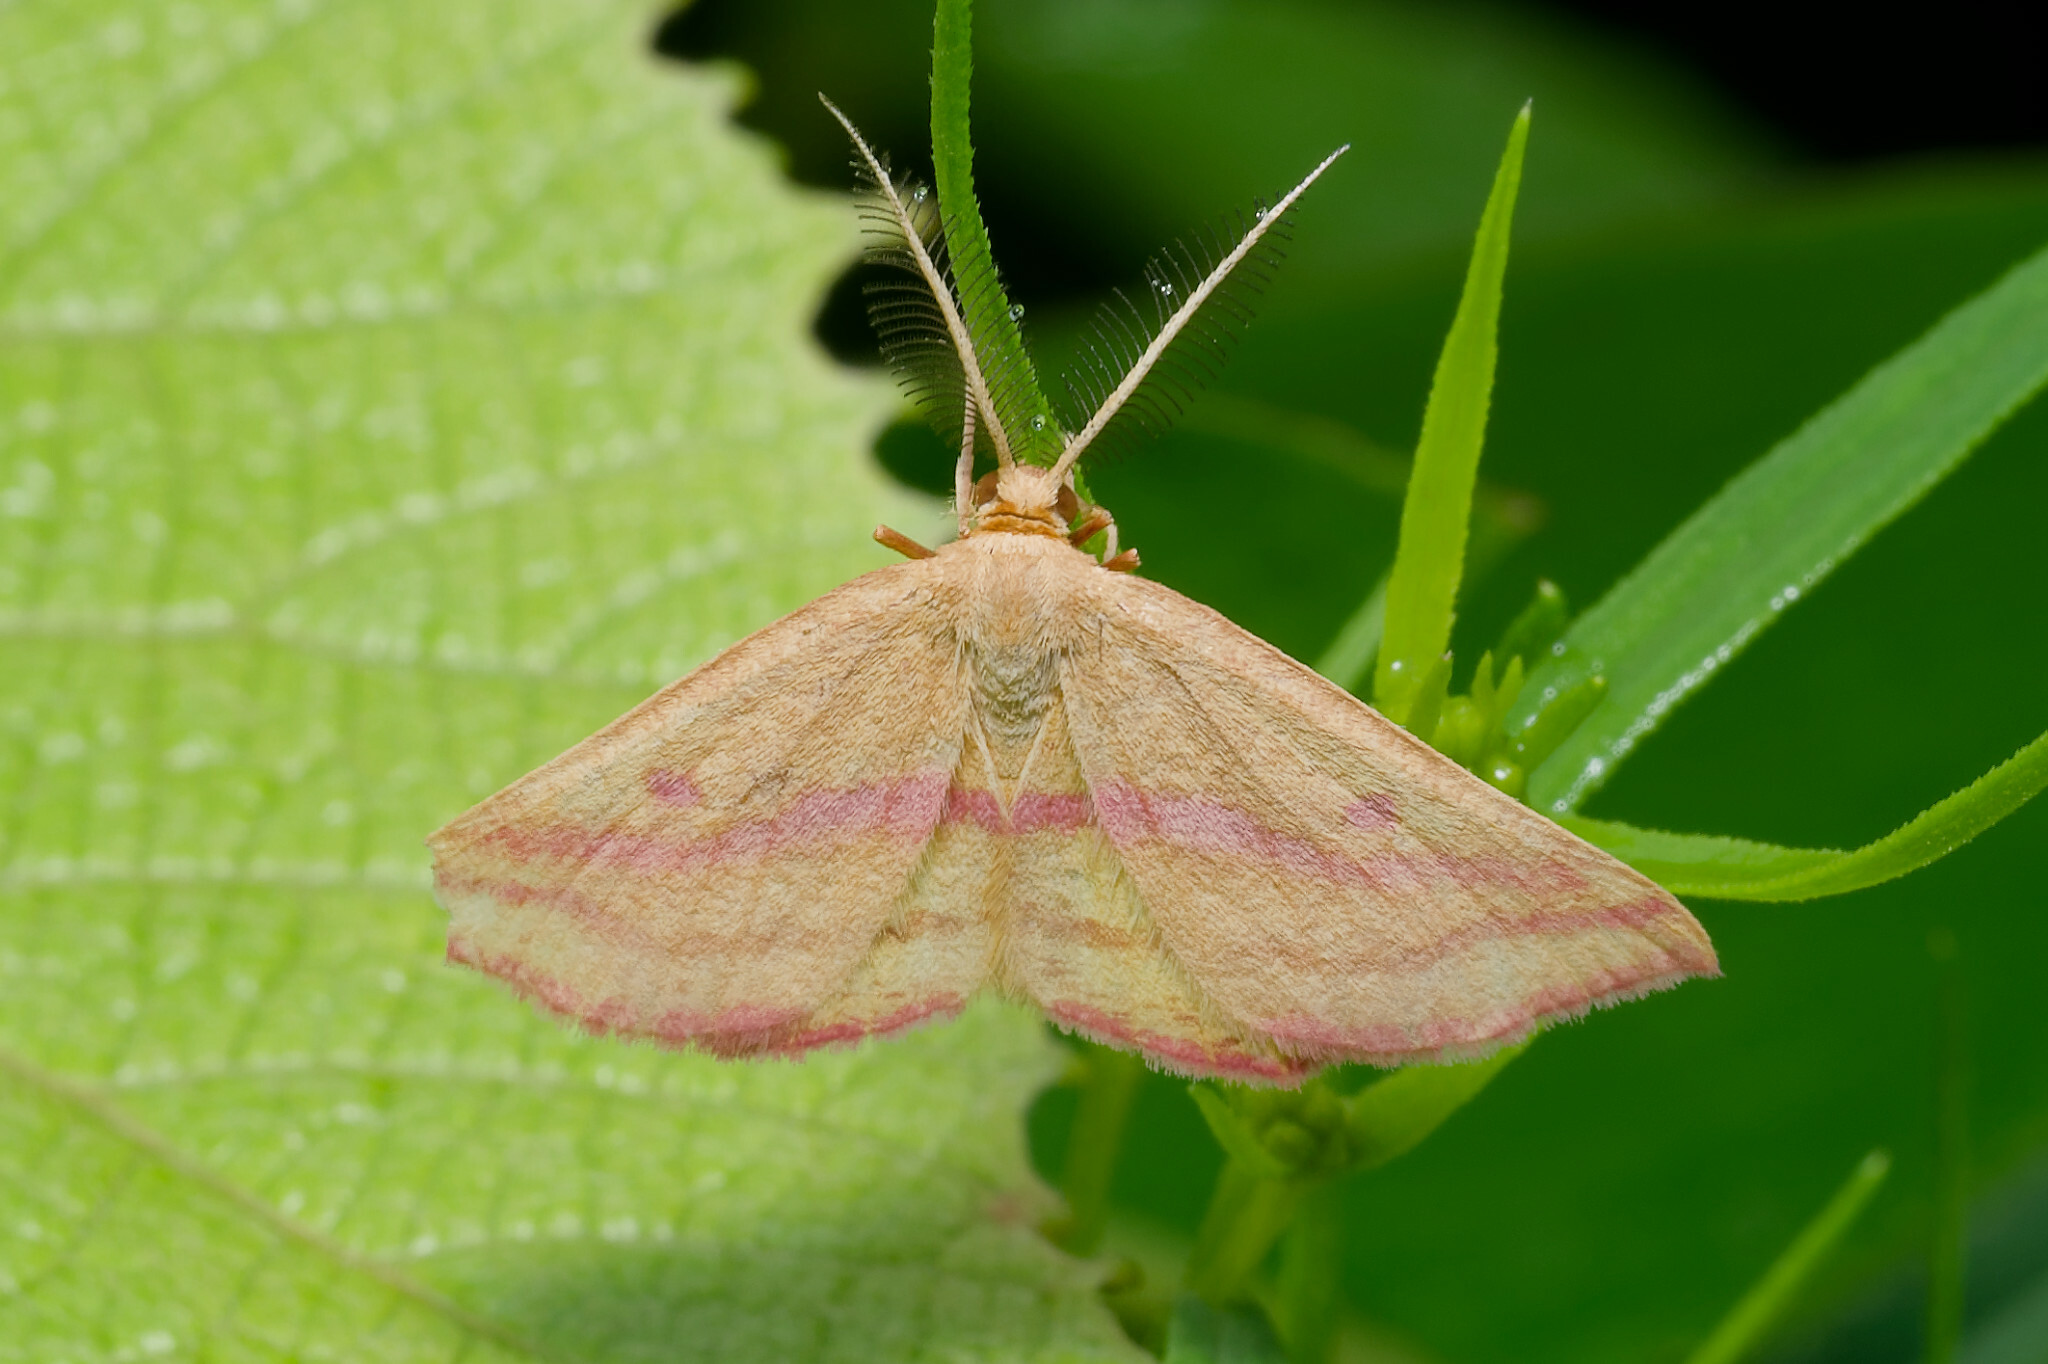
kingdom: Animalia
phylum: Arthropoda
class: Insecta
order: Lepidoptera
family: Geometridae
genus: Haematopis
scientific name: Haematopis grataria
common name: Chickweed geometer
